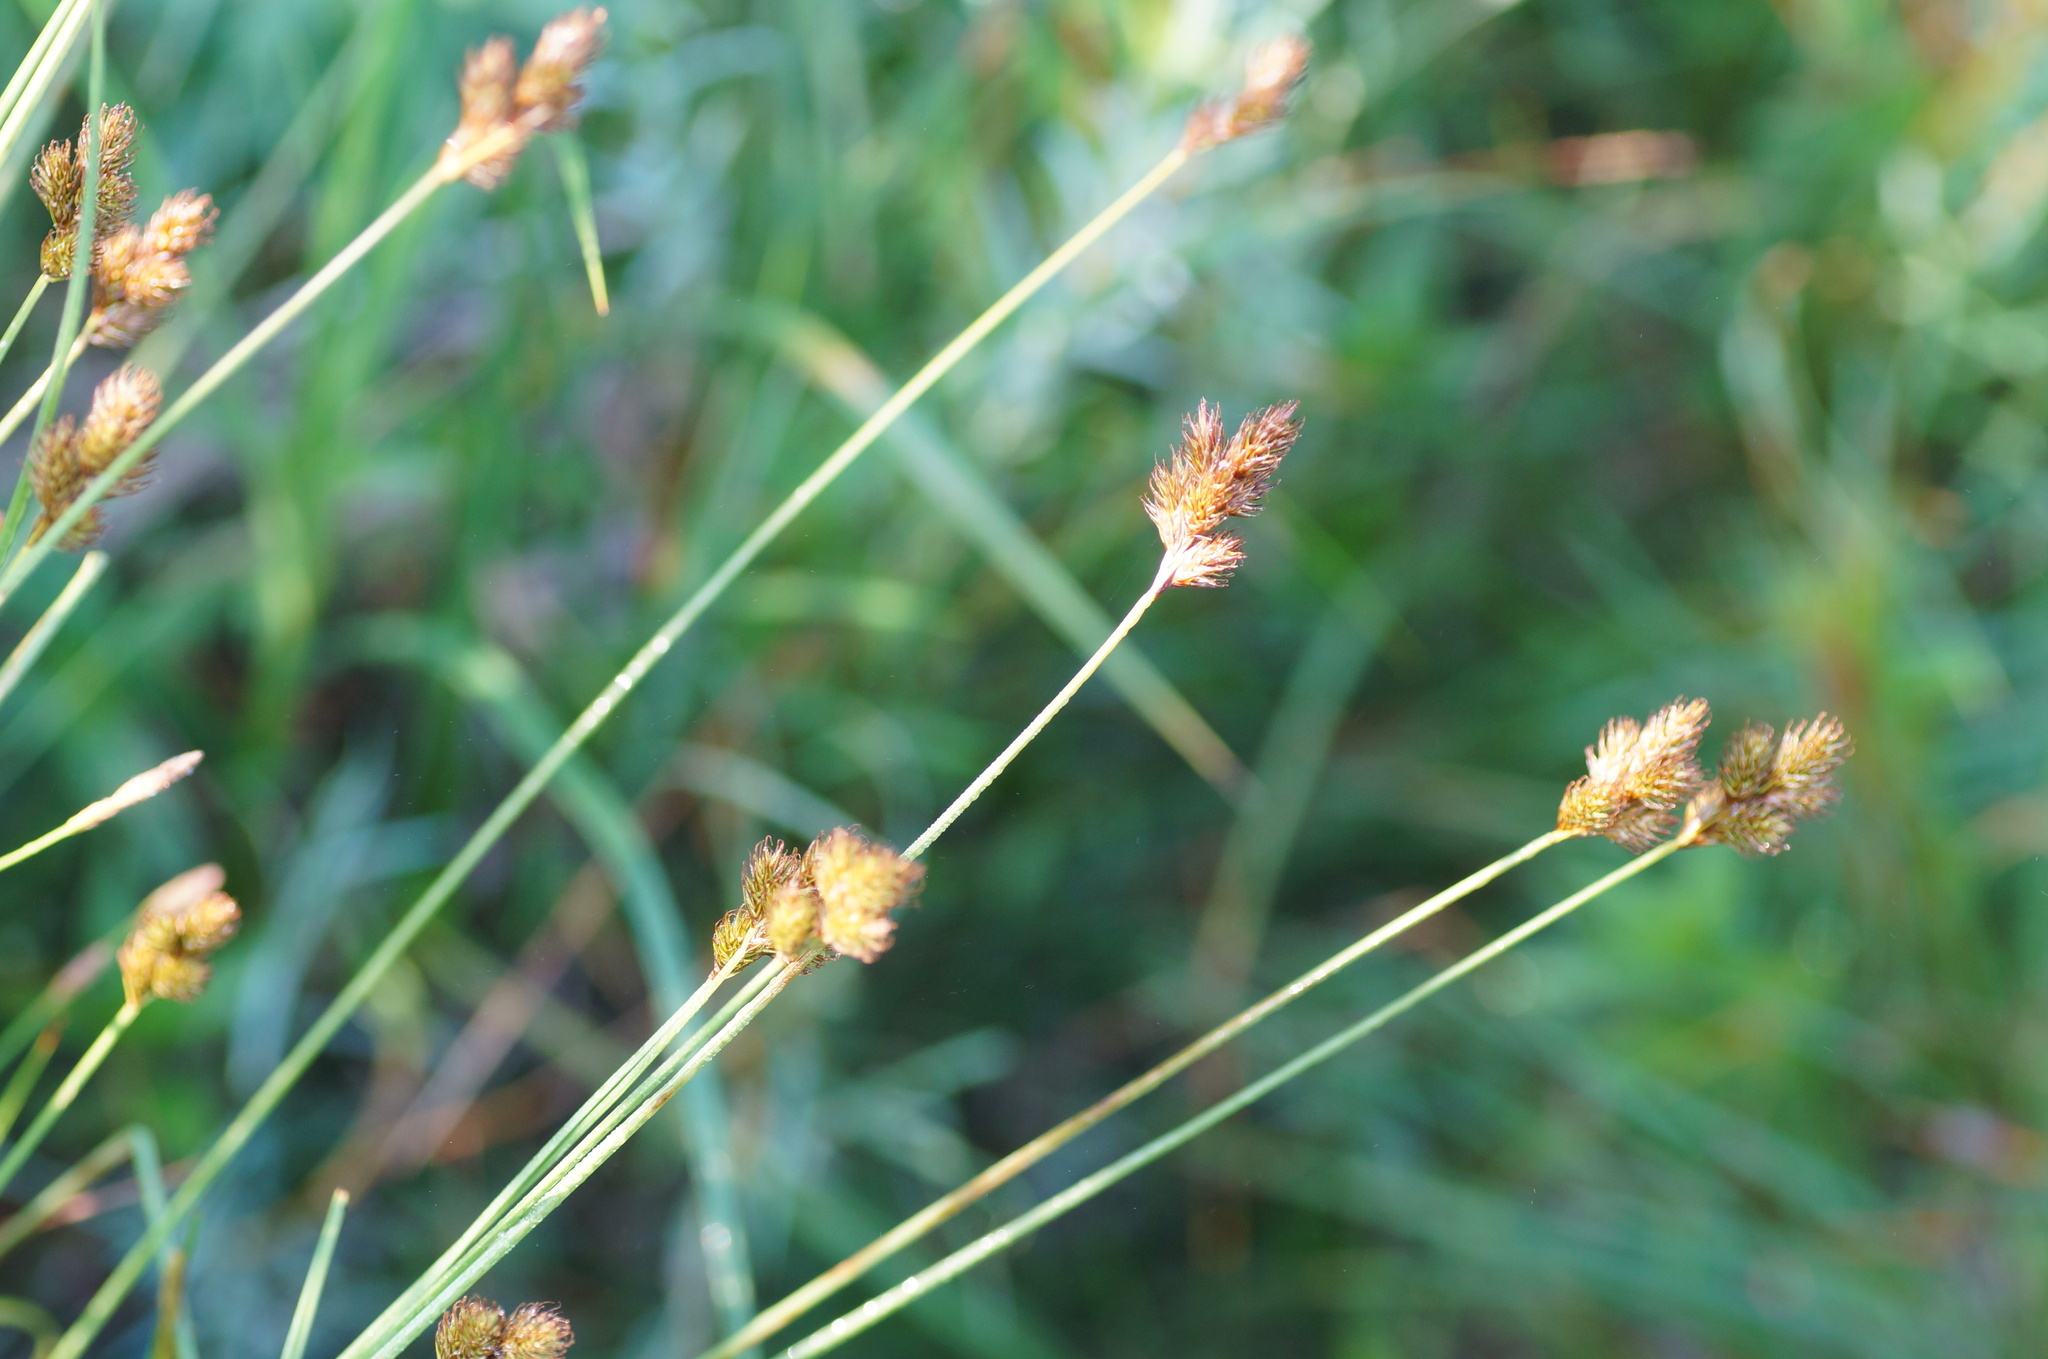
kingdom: Plantae
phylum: Tracheophyta
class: Liliopsida
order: Poales
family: Cyperaceae
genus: Carex
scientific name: Carex leporina
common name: Oval sedge
